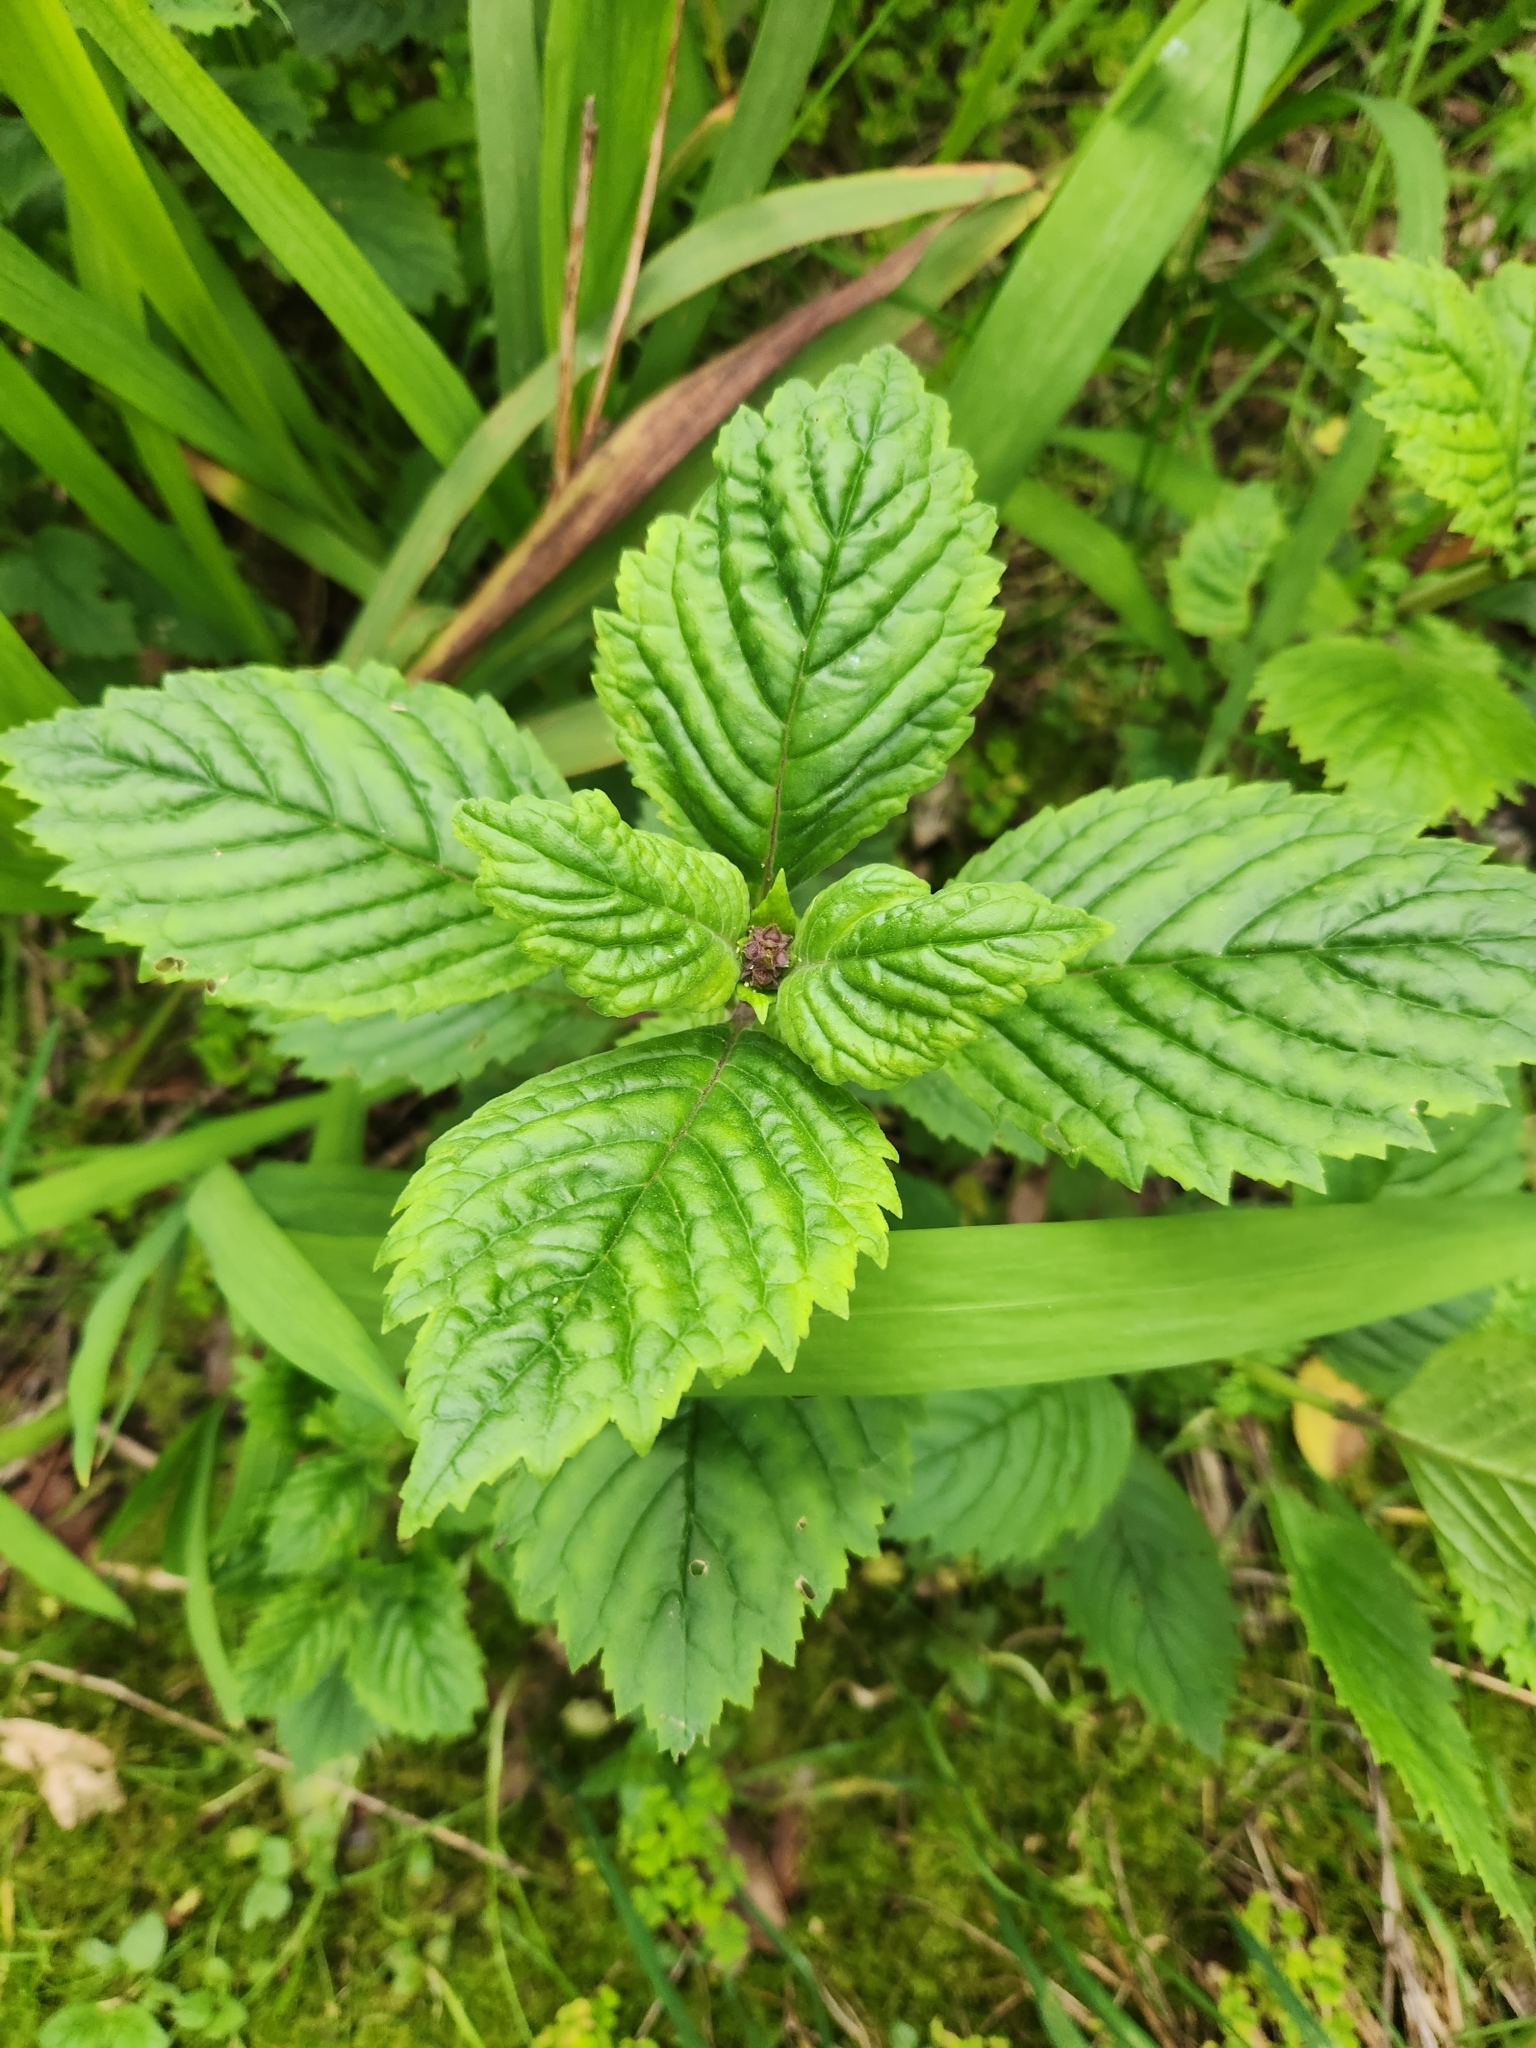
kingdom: Plantae
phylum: Tracheophyta
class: Magnoliopsida
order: Lamiales
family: Calceolariaceae
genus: Jovellana
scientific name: Jovellana punctata
